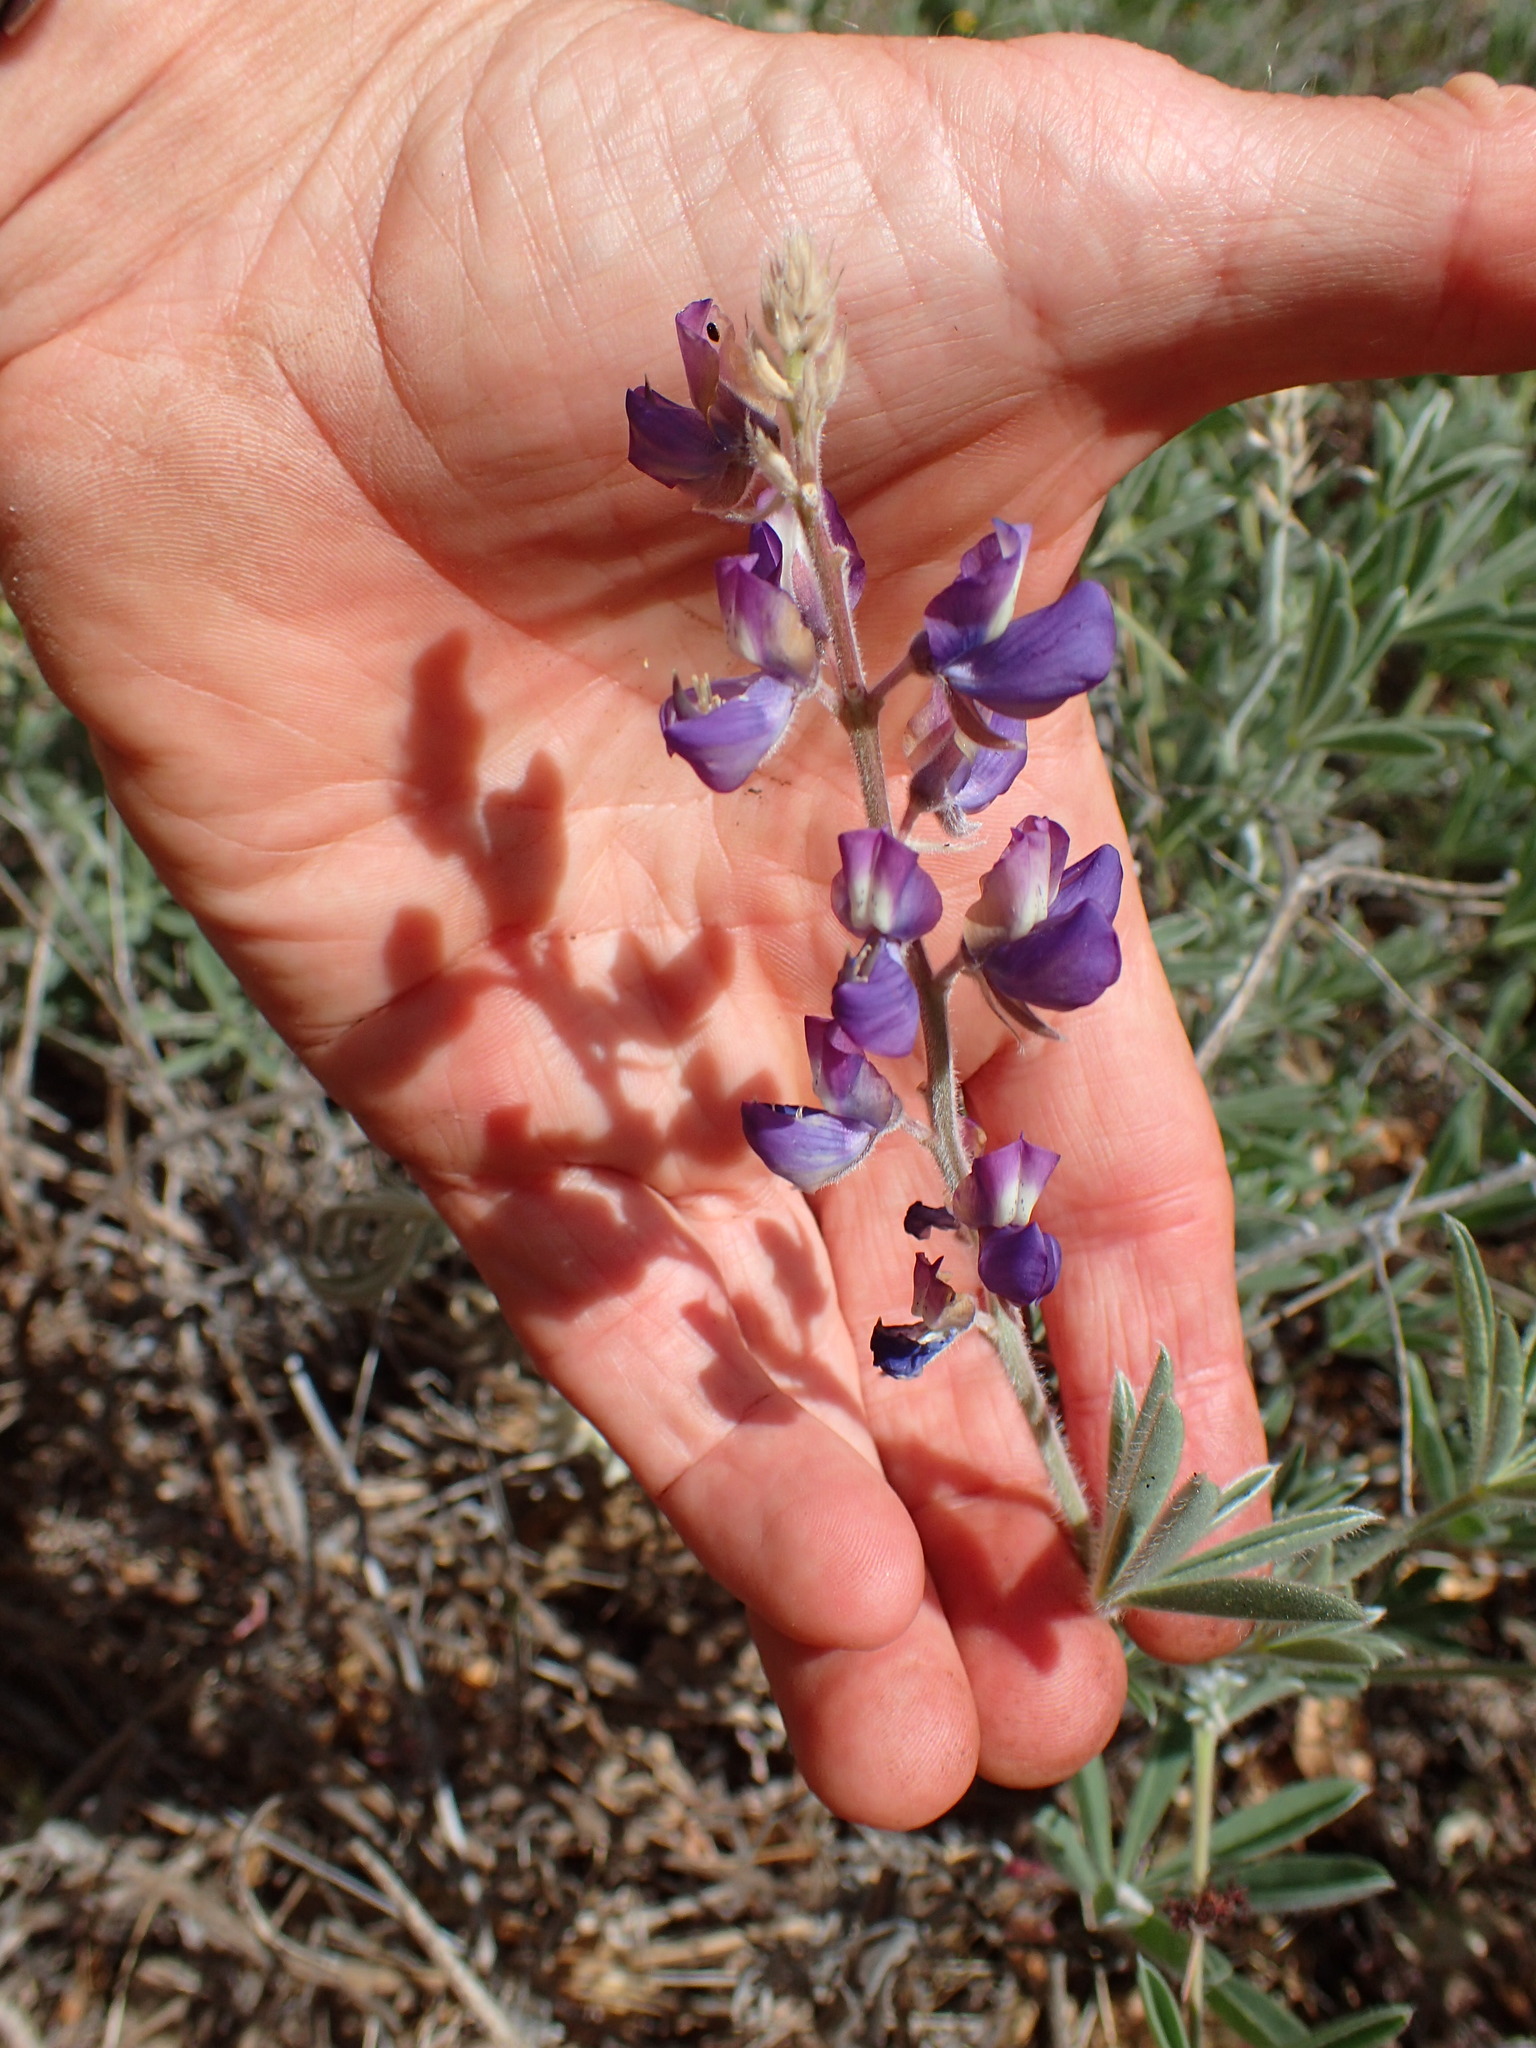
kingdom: Plantae
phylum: Tracheophyta
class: Magnoliopsida
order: Fabales
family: Fabaceae
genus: Lupinus
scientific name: Lupinus formosus
